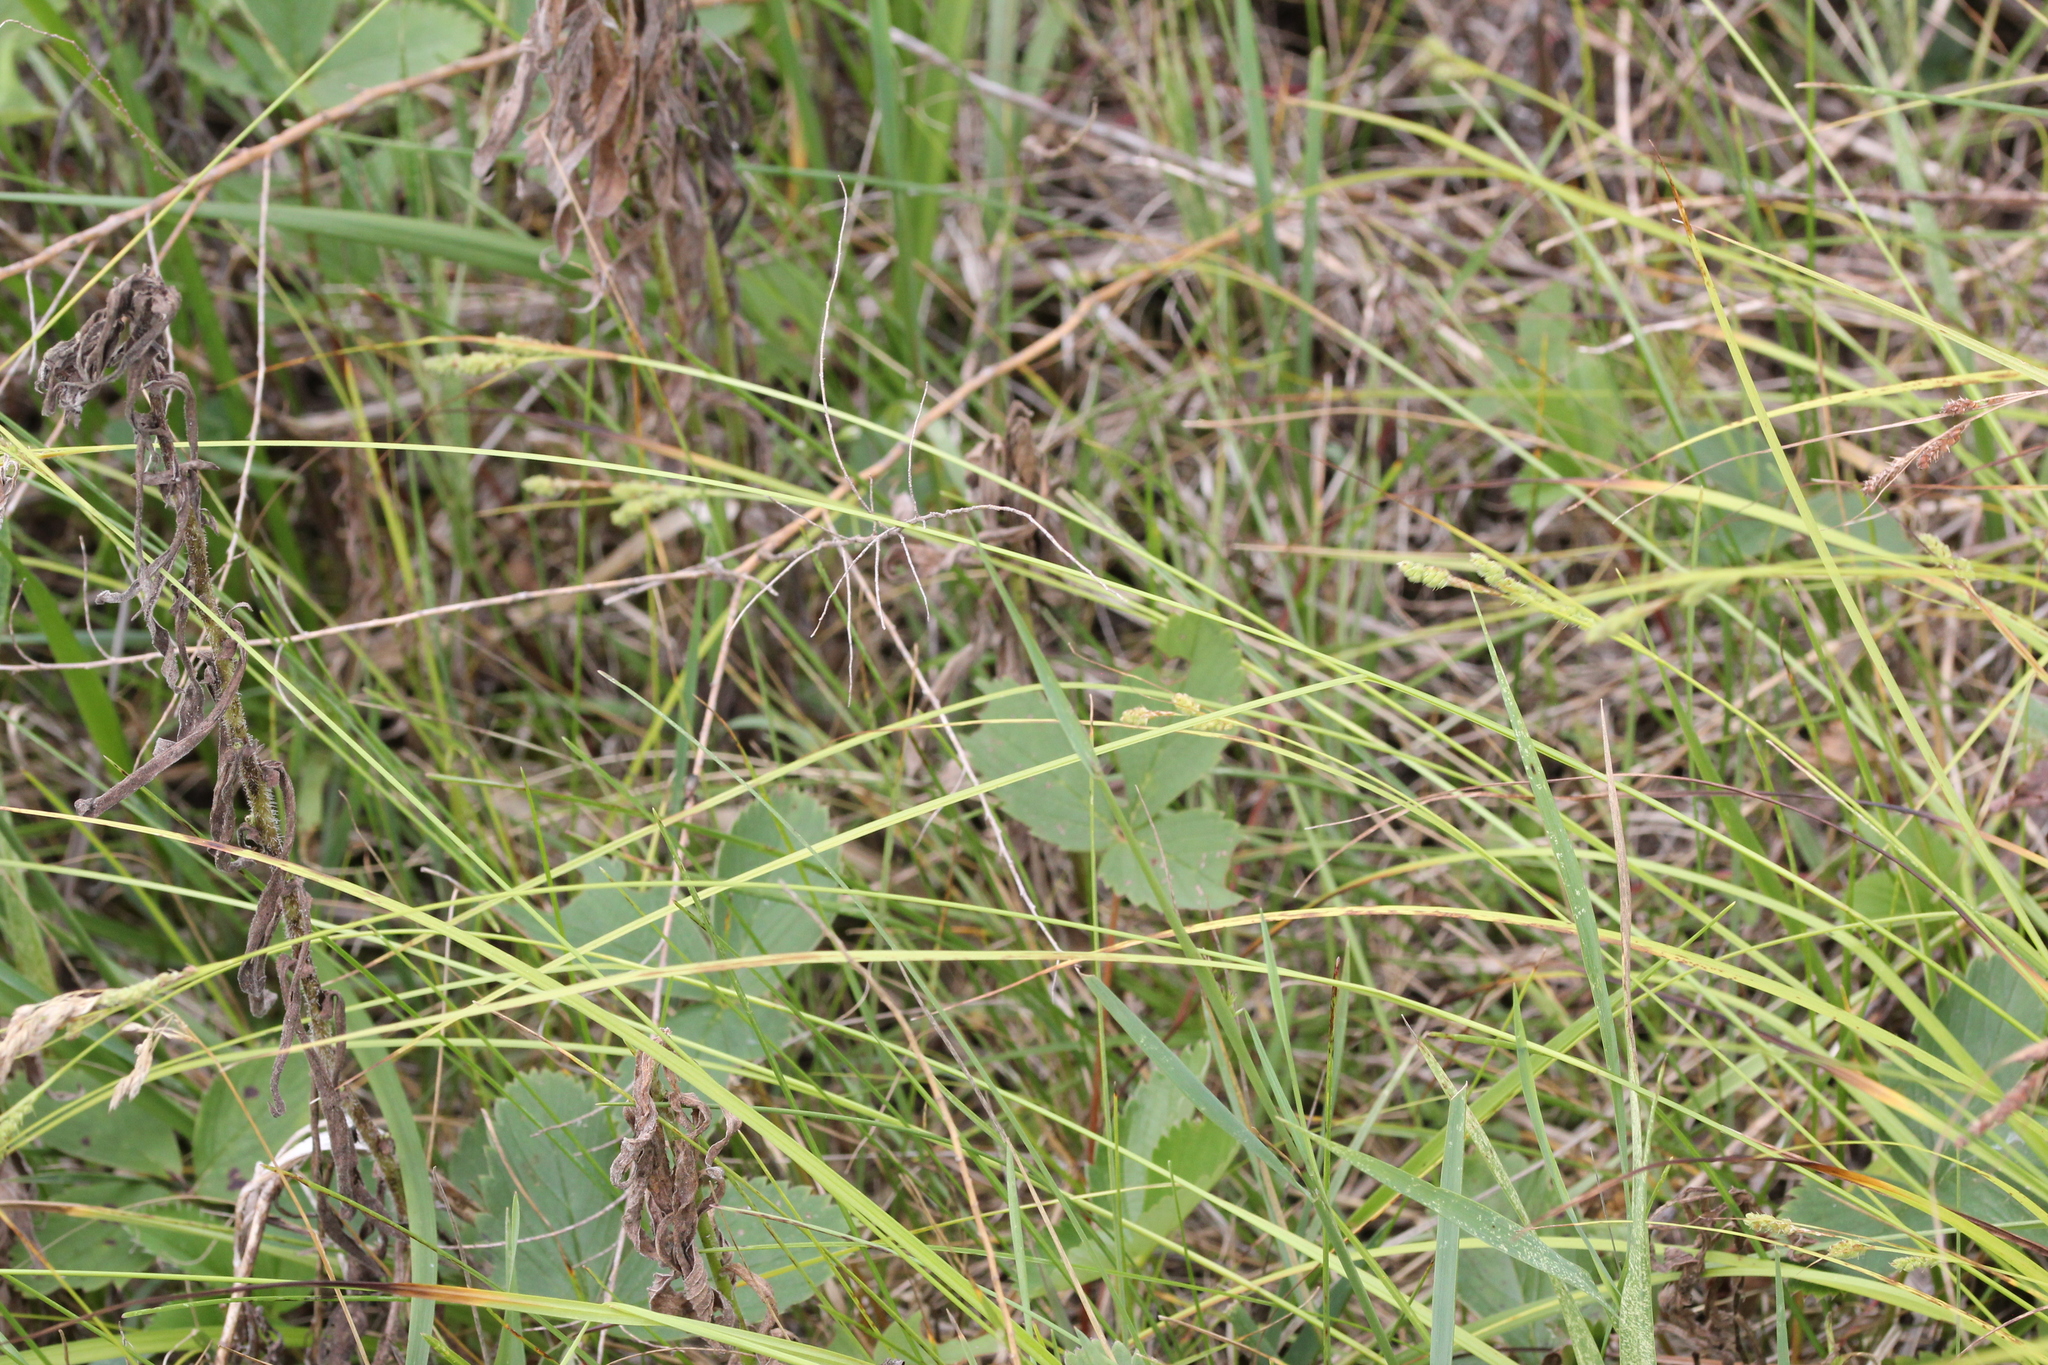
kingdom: Plantae
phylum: Tracheophyta
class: Liliopsida
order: Poales
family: Cyperaceae
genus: Carex
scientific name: Carex swanii
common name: Downy green sedge
